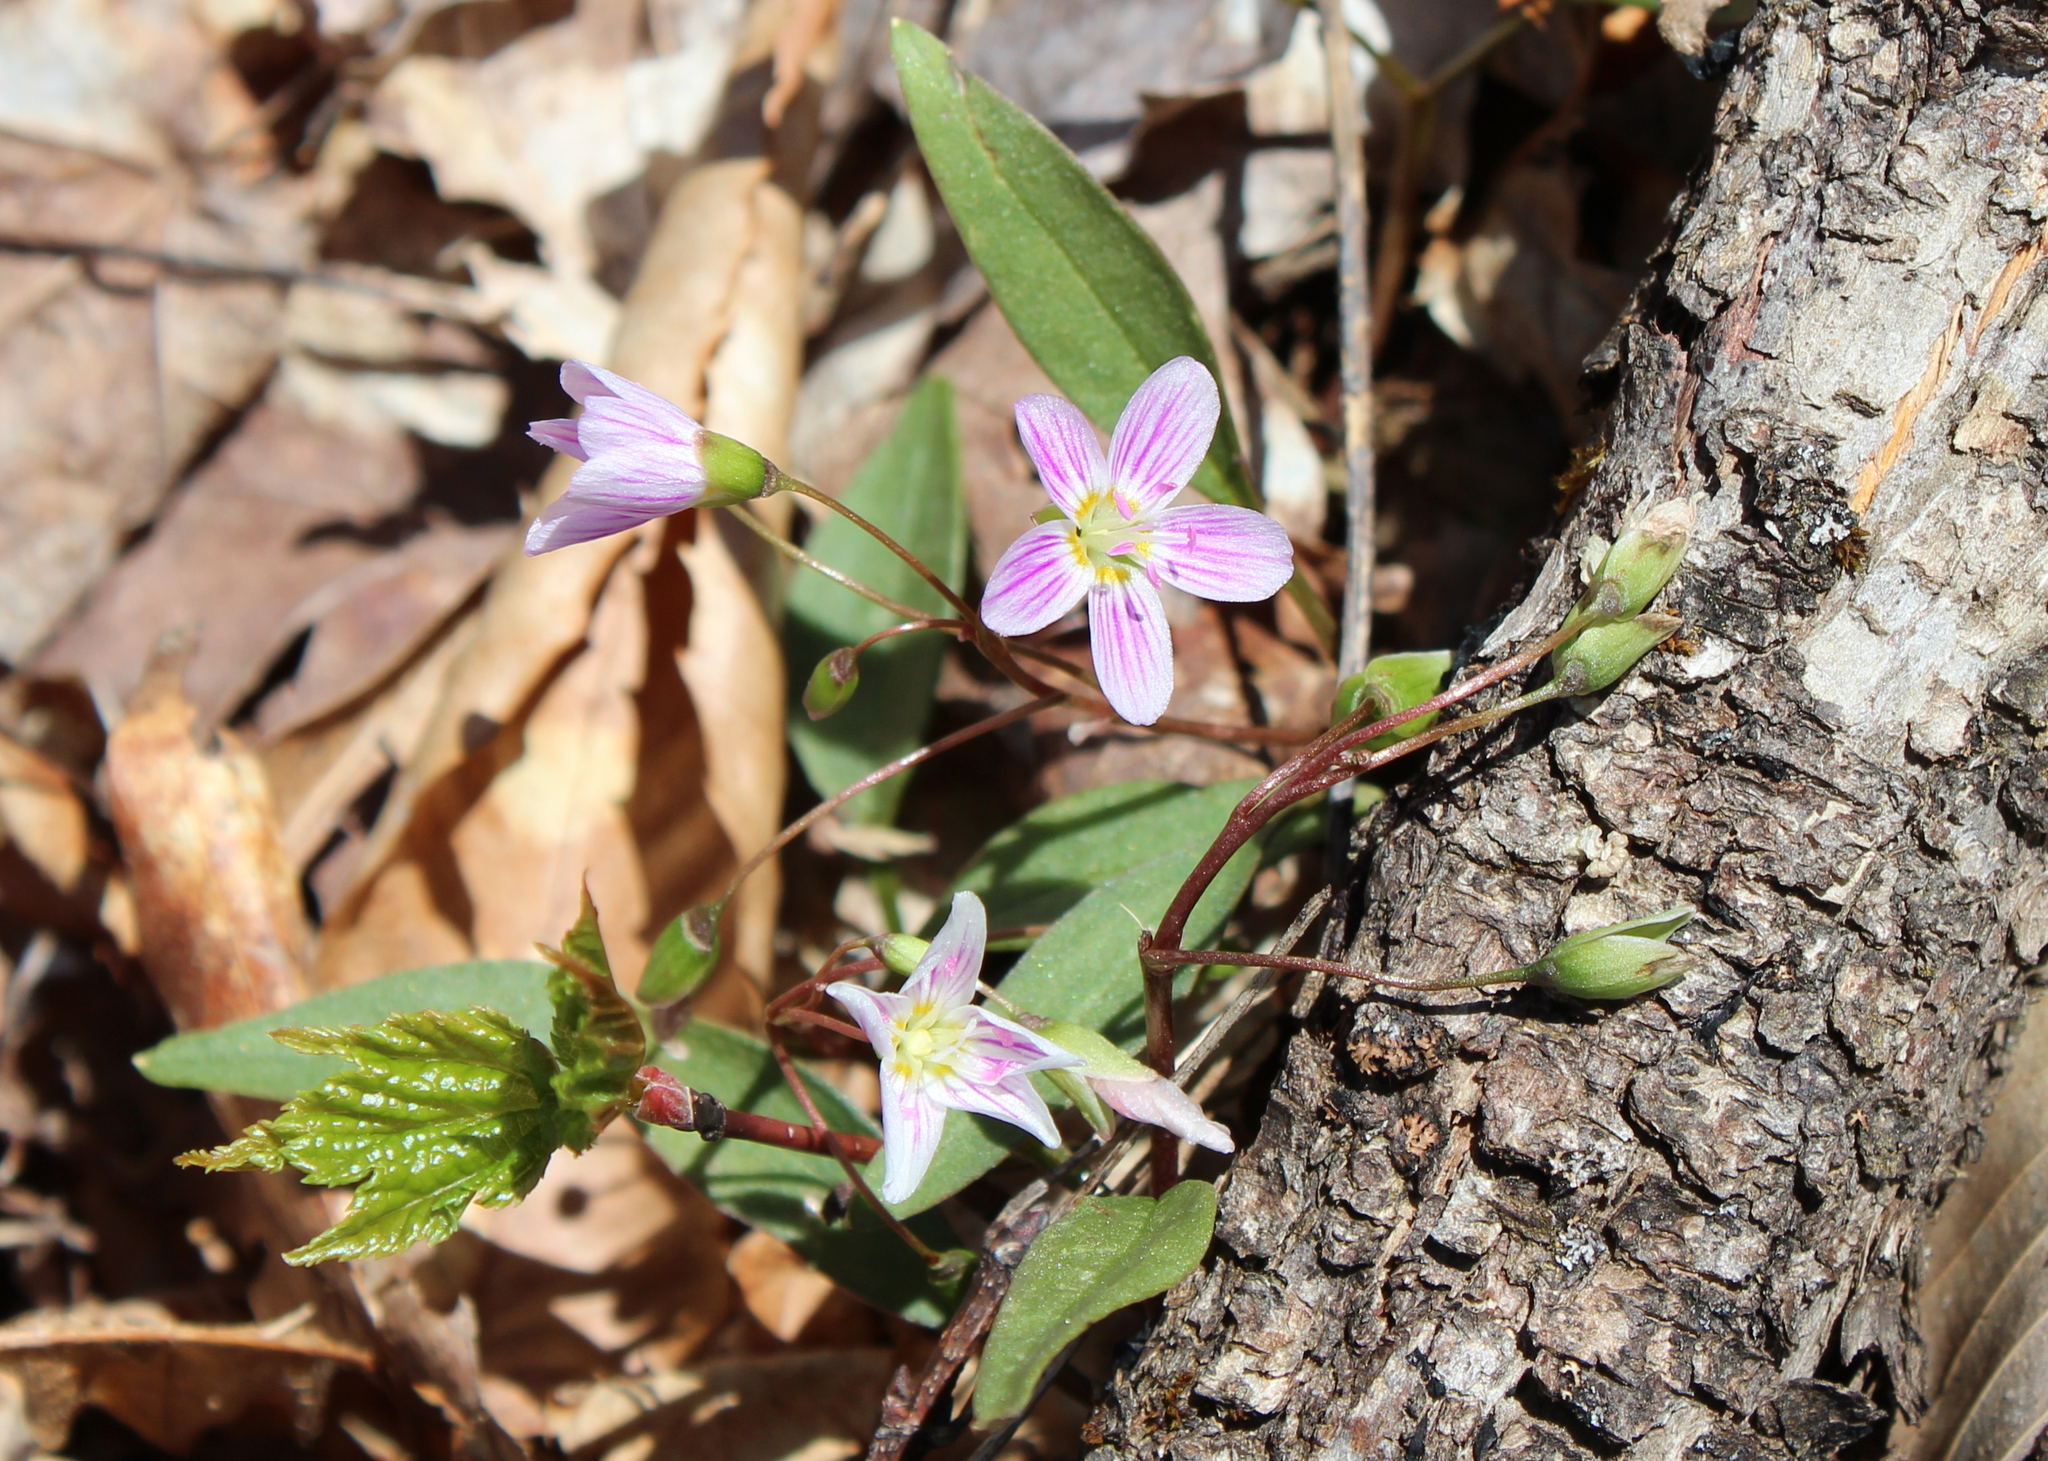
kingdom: Plantae
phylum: Tracheophyta
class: Magnoliopsida
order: Caryophyllales
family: Montiaceae
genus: Claytonia
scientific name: Claytonia caroliniana
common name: Carolina spring beauty
